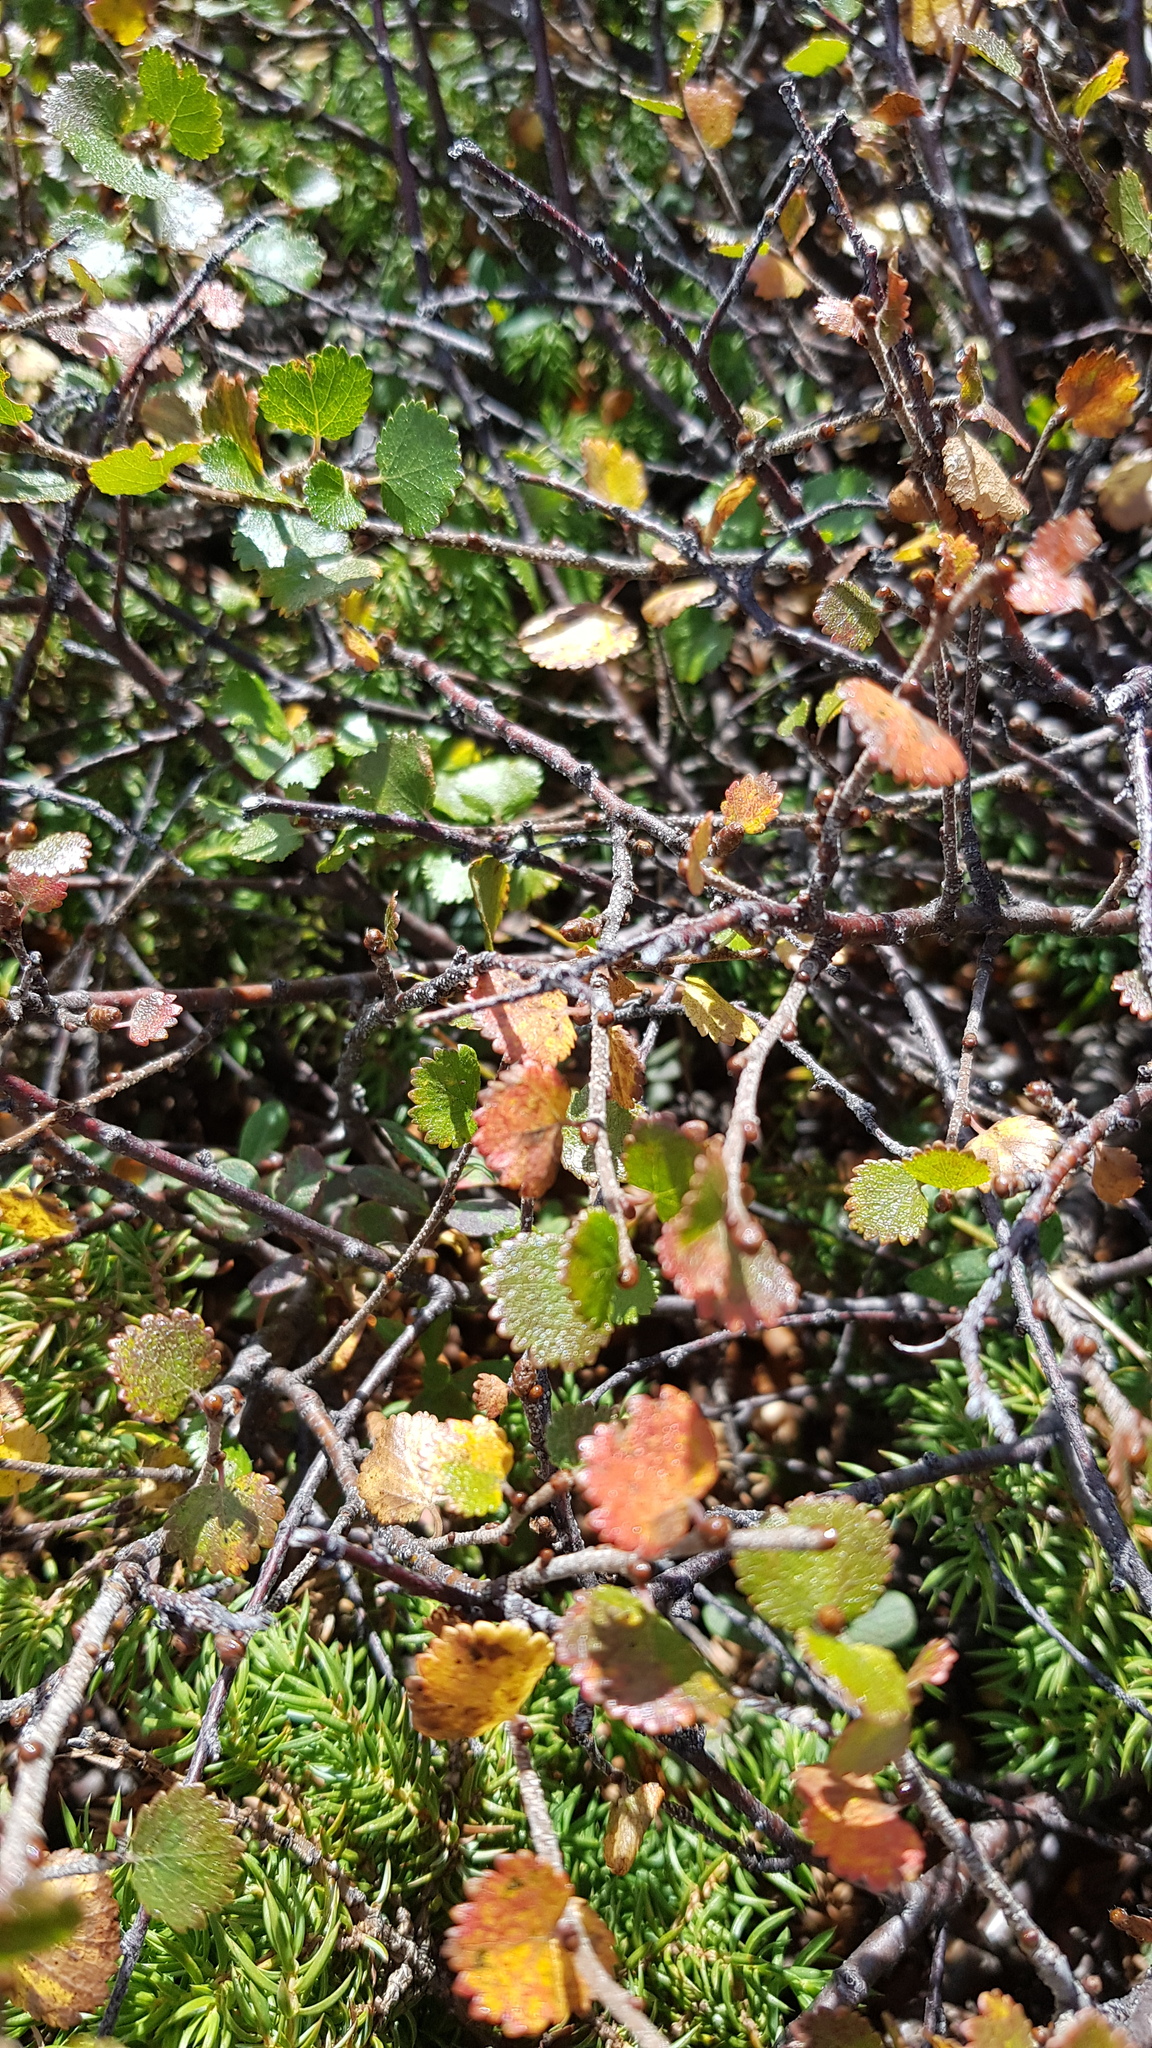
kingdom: Plantae
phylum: Tracheophyta
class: Magnoliopsida
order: Fagales
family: Betulaceae
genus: Betula
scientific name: Betula glandulosa
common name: Dwarf birch
